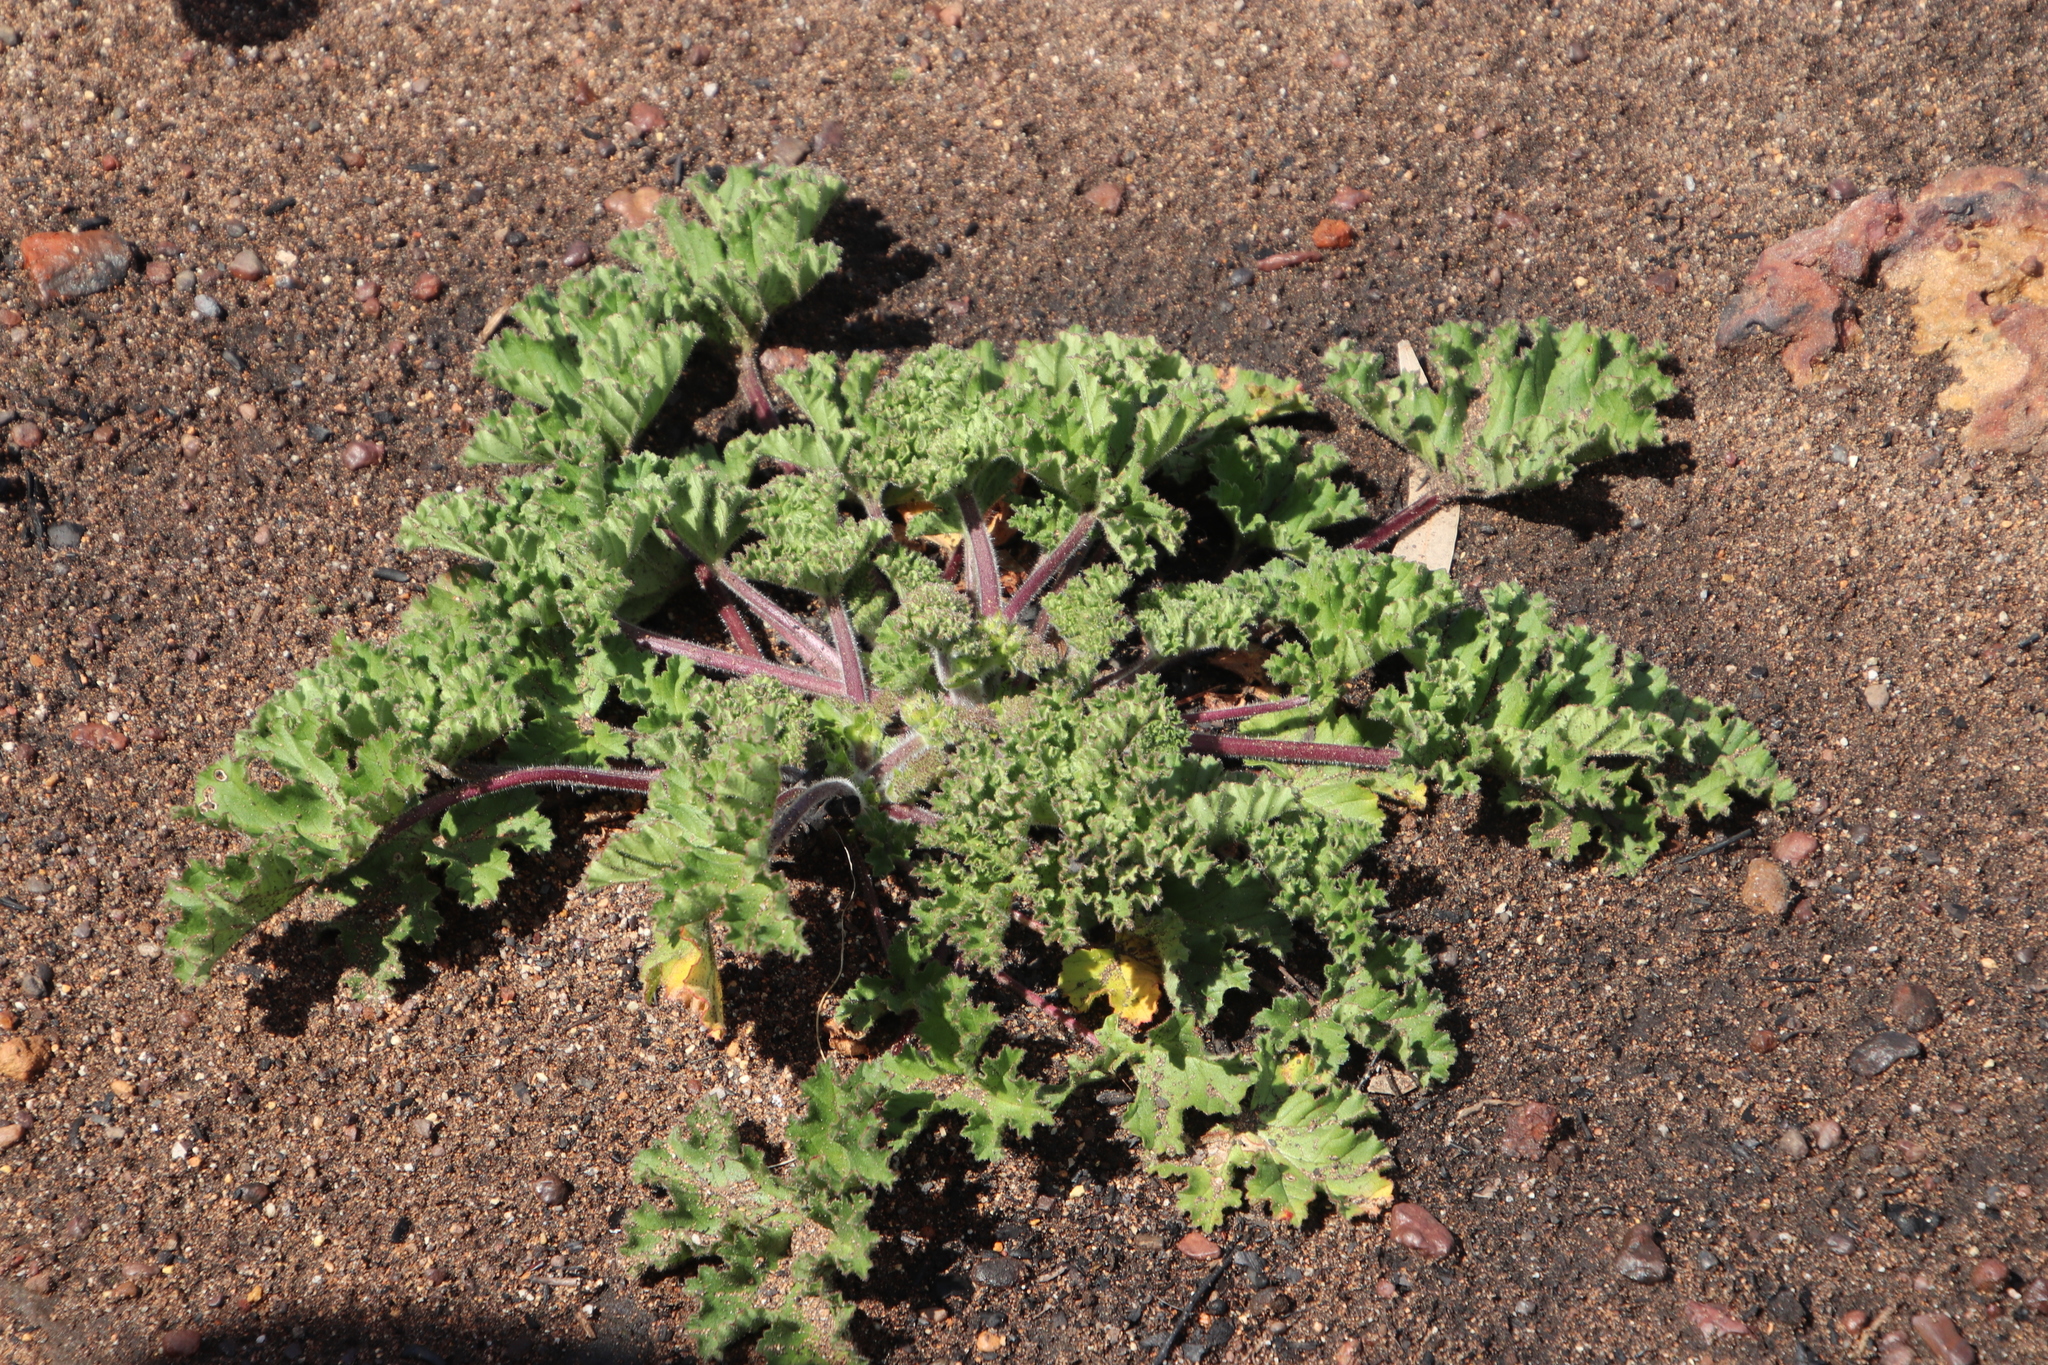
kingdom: Plantae
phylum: Tracheophyta
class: Magnoliopsida
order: Geraniales
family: Geraniaceae
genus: Pelargonium
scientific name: Pelargonium capitatum
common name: Rose scented geranium
